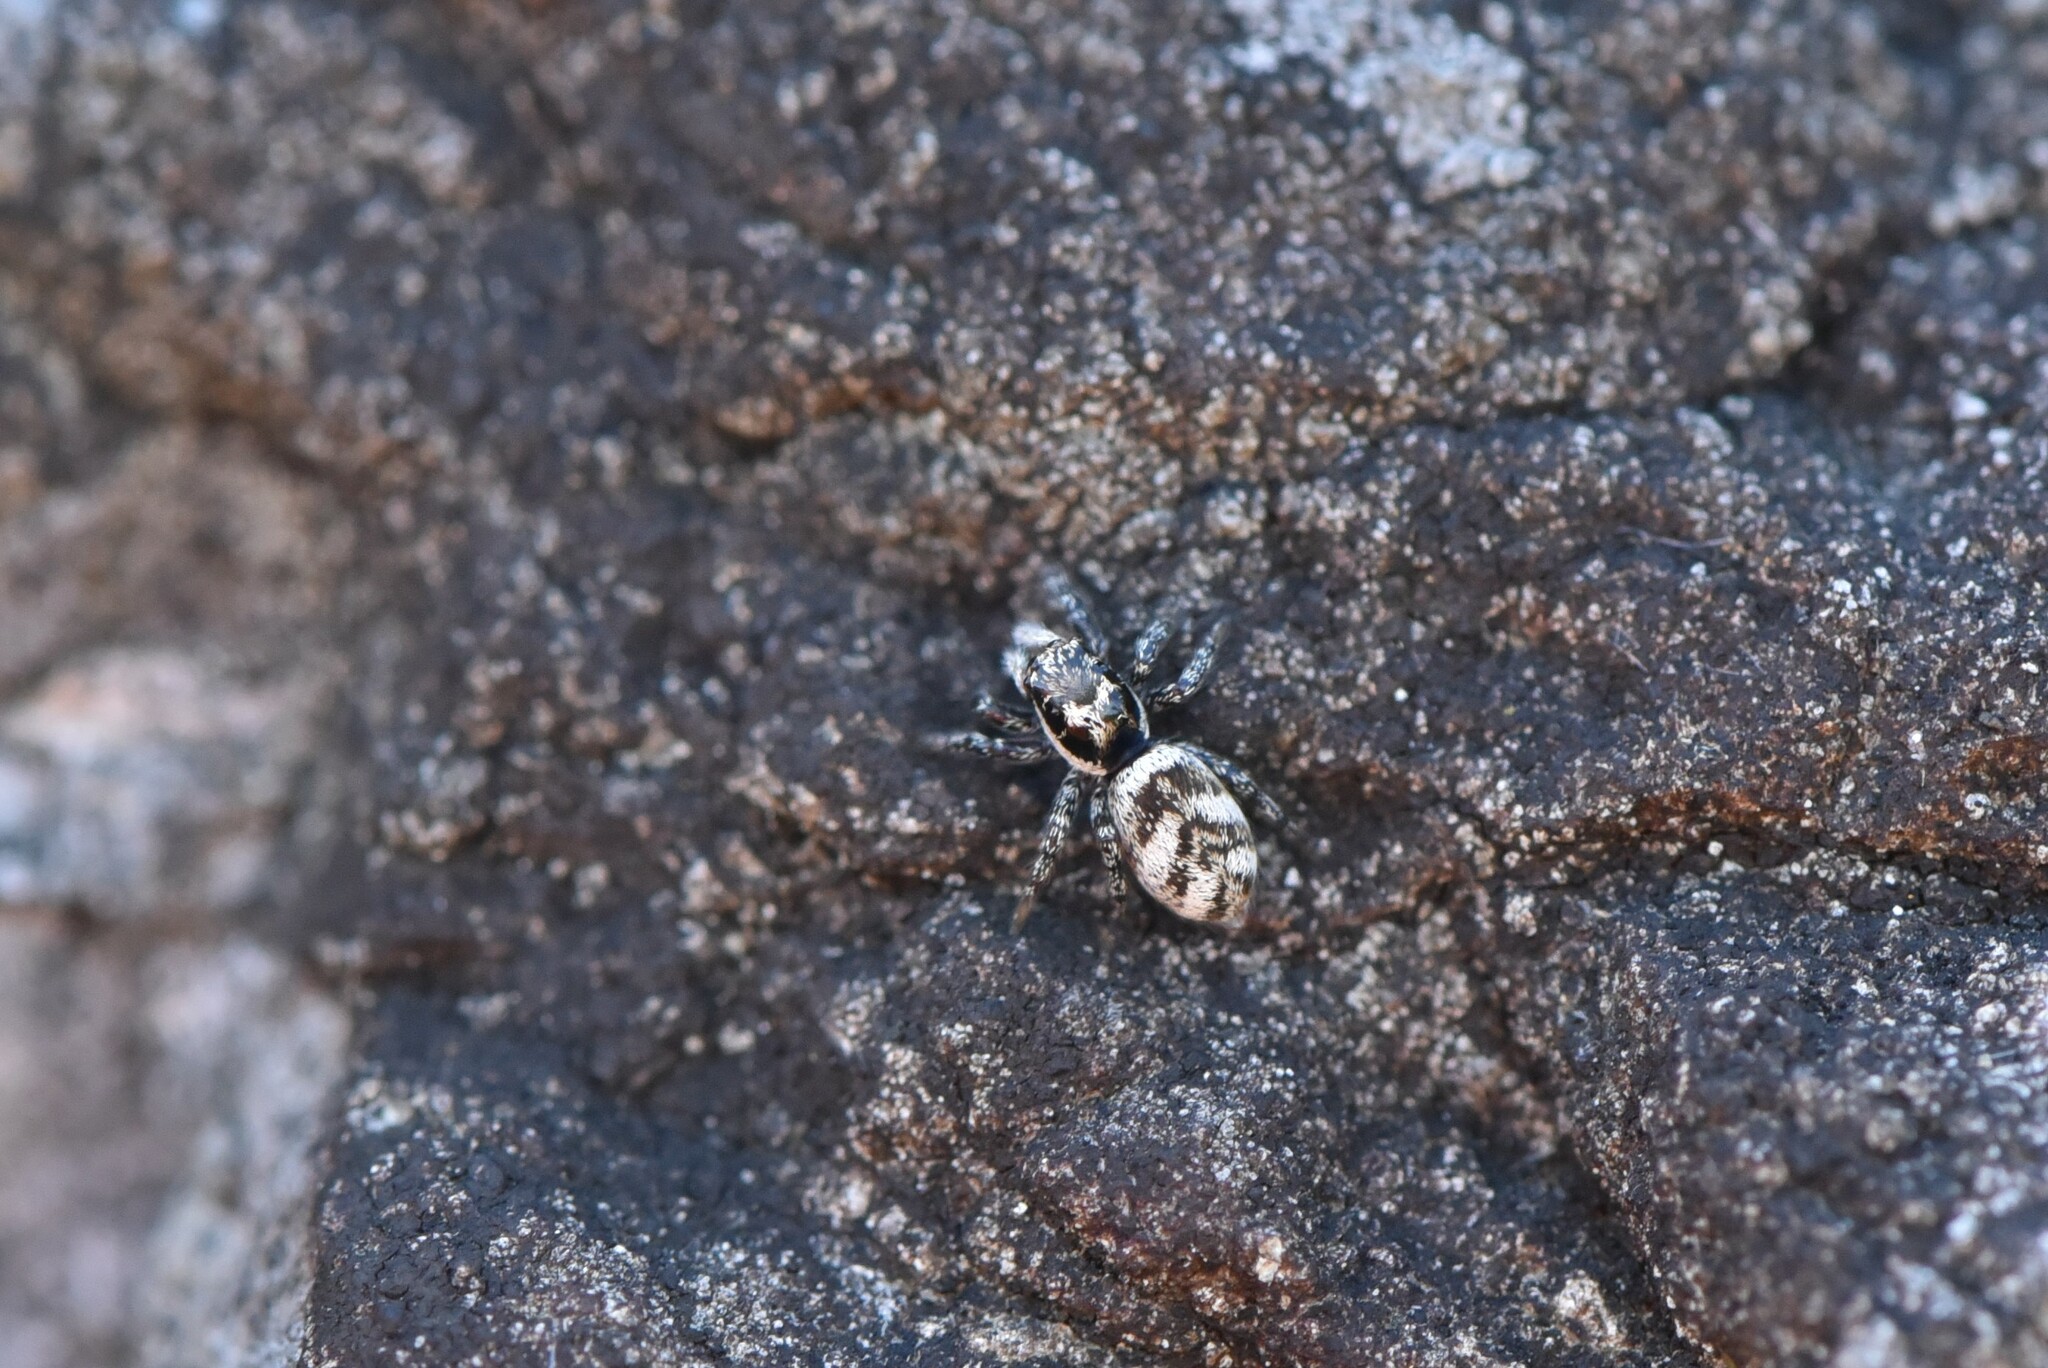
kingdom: Animalia
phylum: Arthropoda
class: Arachnida
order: Araneae
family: Salticidae
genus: Salticus
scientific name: Salticus scenicus
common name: Zebra jumper
